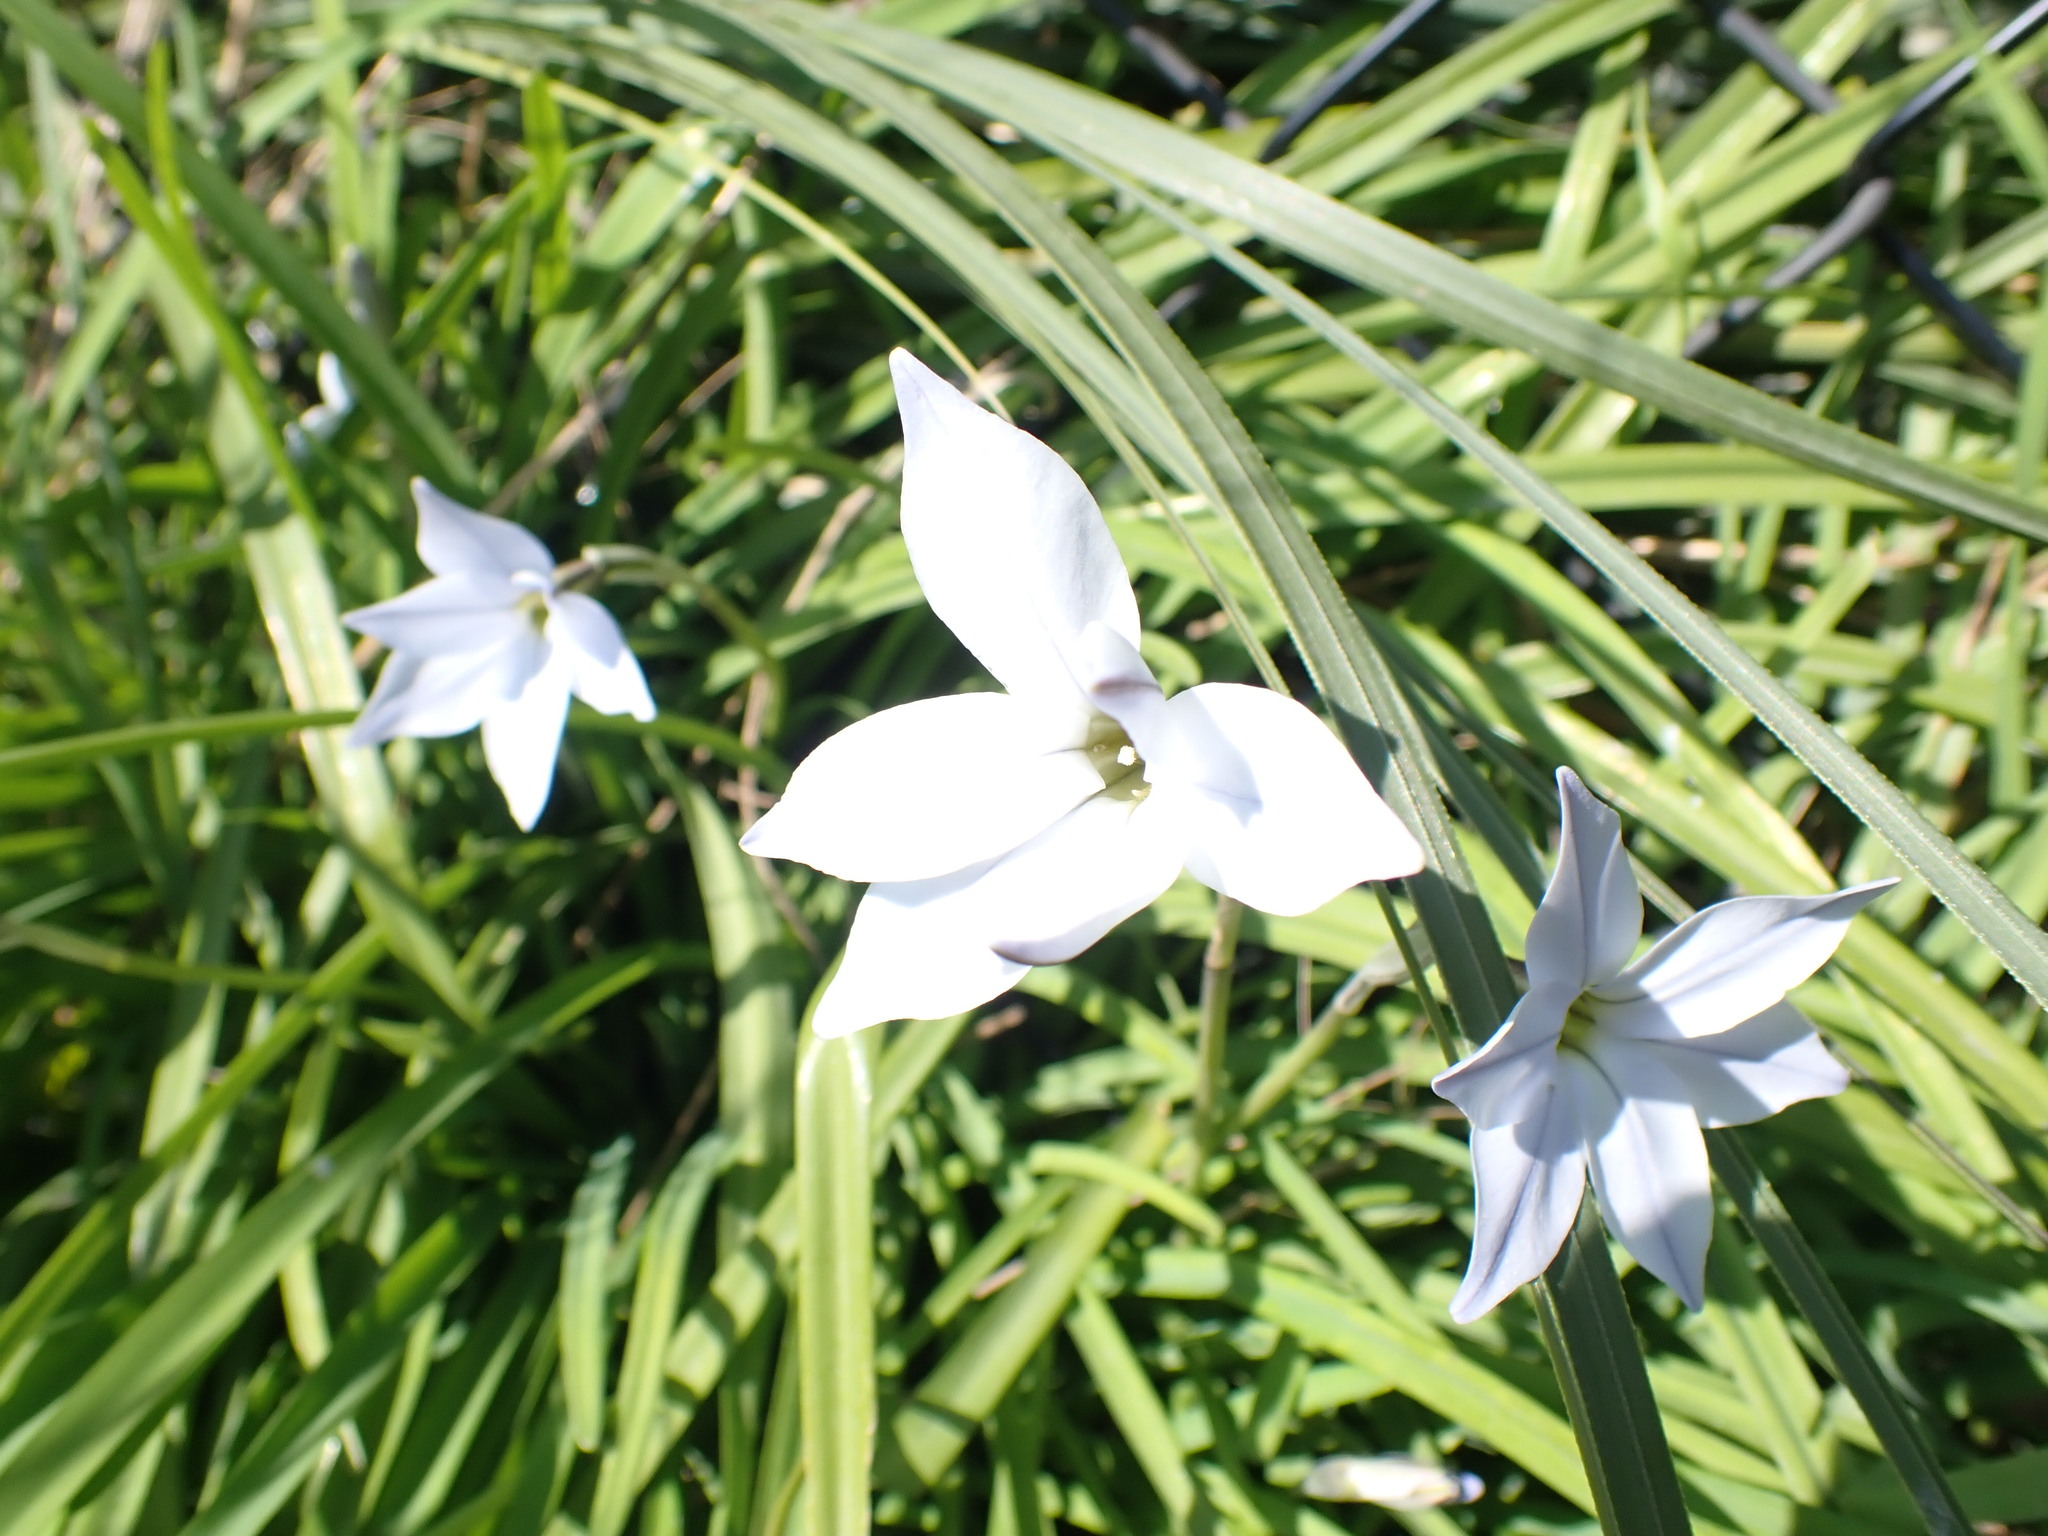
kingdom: Plantae
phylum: Tracheophyta
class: Liliopsida
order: Asparagales
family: Amaryllidaceae
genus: Ipheion
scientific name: Ipheion uniflorum
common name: Spring starflower
